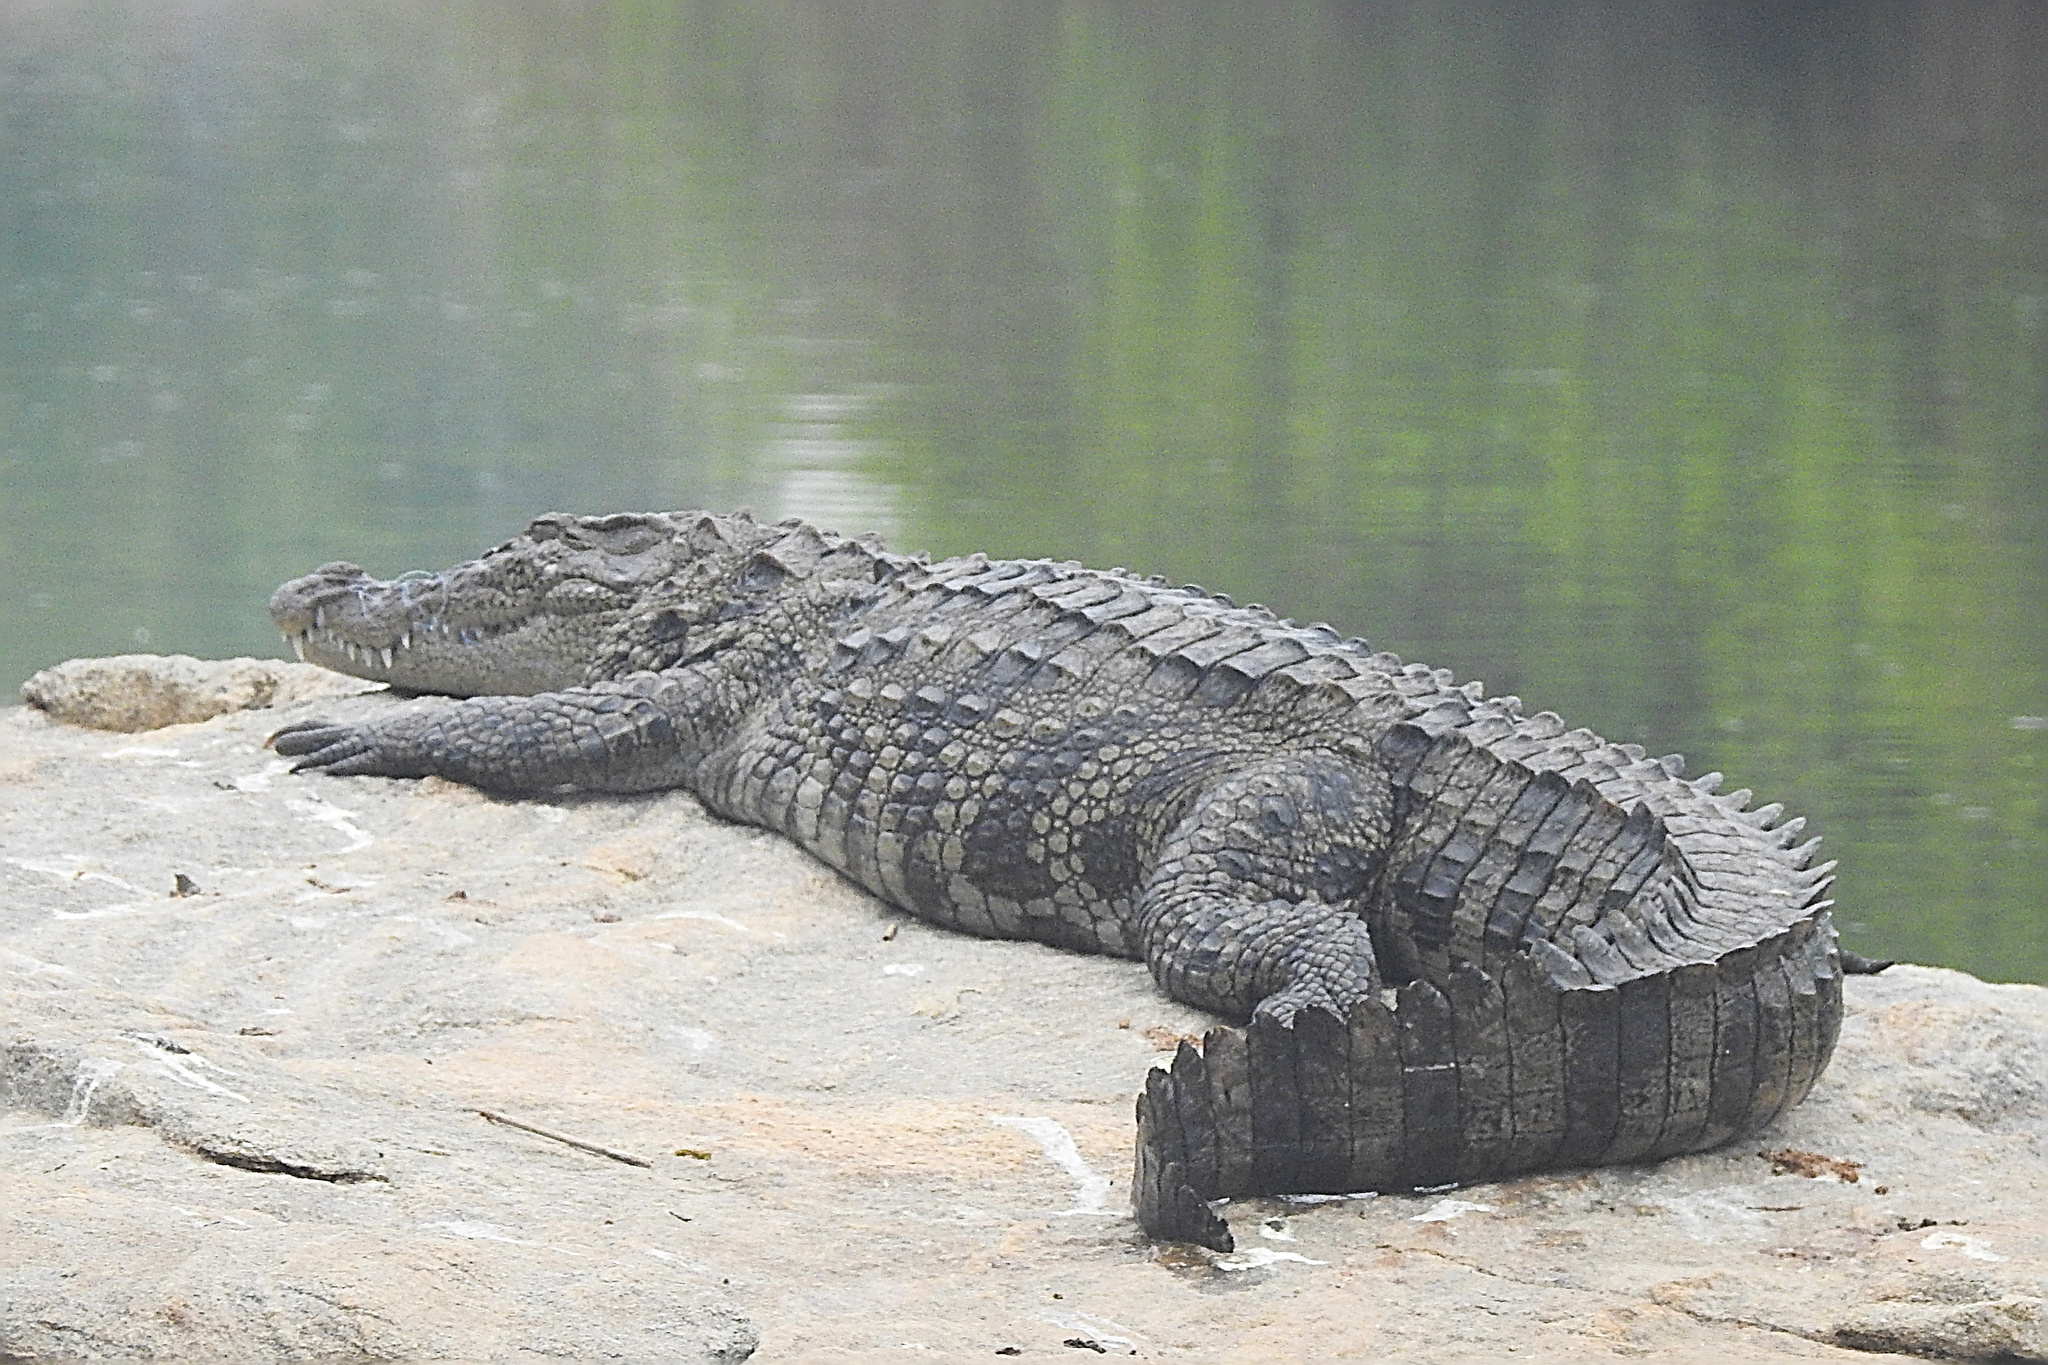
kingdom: Animalia
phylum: Chordata
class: Crocodylia
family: Crocodylidae
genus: Crocodylus
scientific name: Crocodylus palustris
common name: Mugger crocodile
